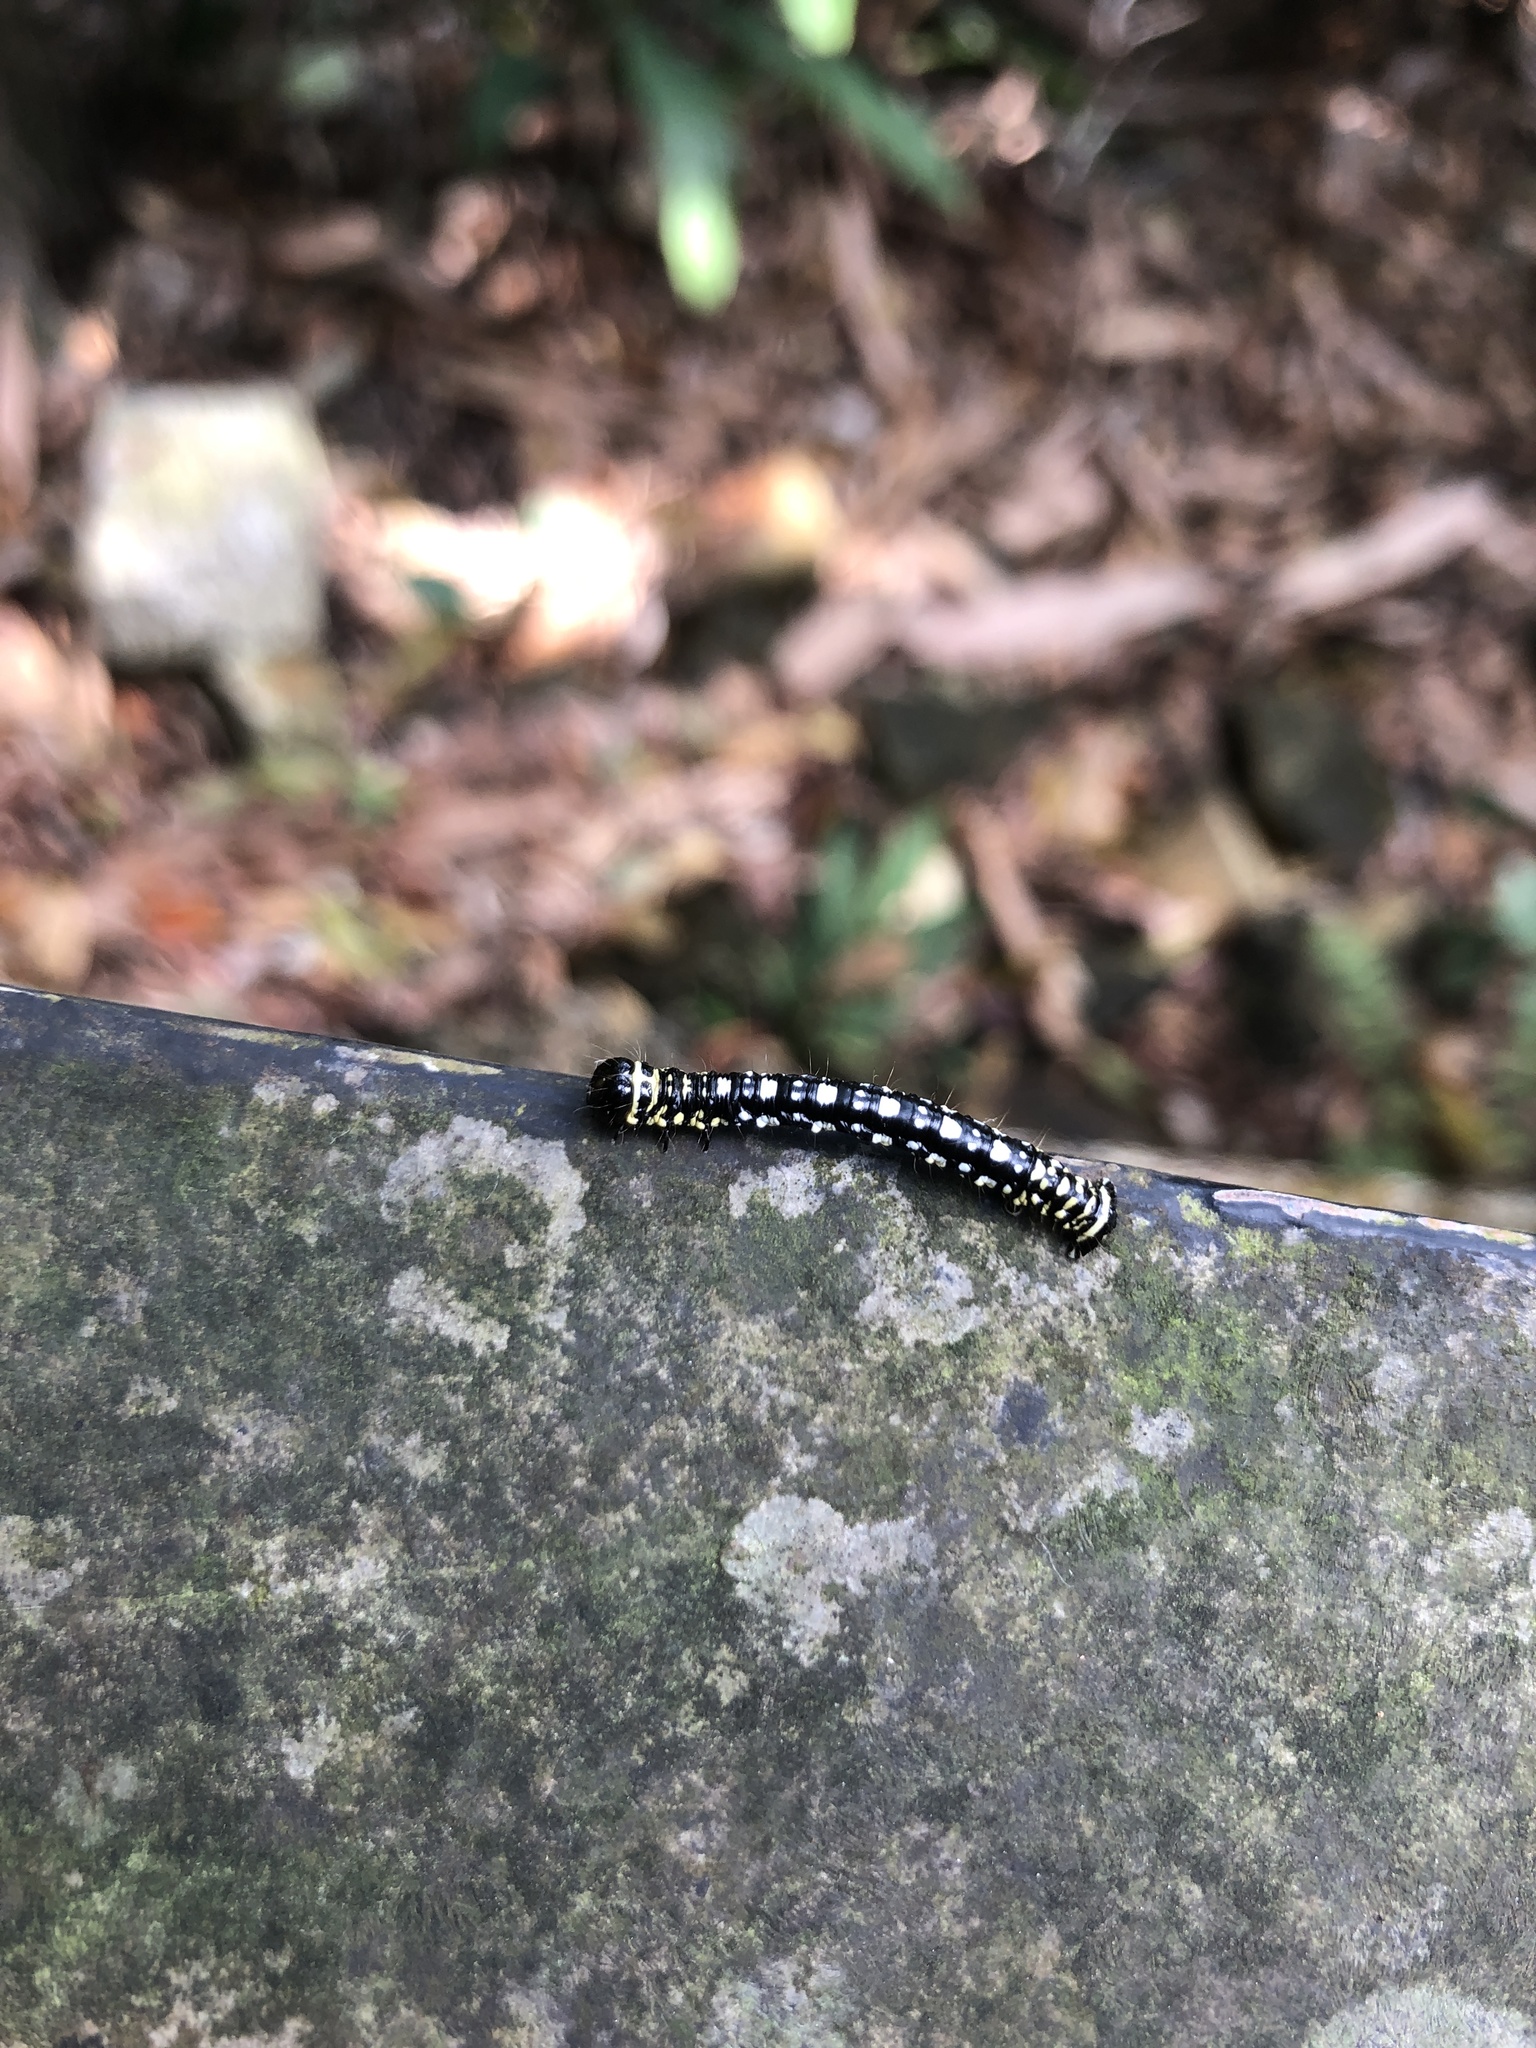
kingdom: Animalia
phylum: Arthropoda
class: Insecta
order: Lepidoptera
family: Geometridae
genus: Abraxas
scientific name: Abraxas illuminata
